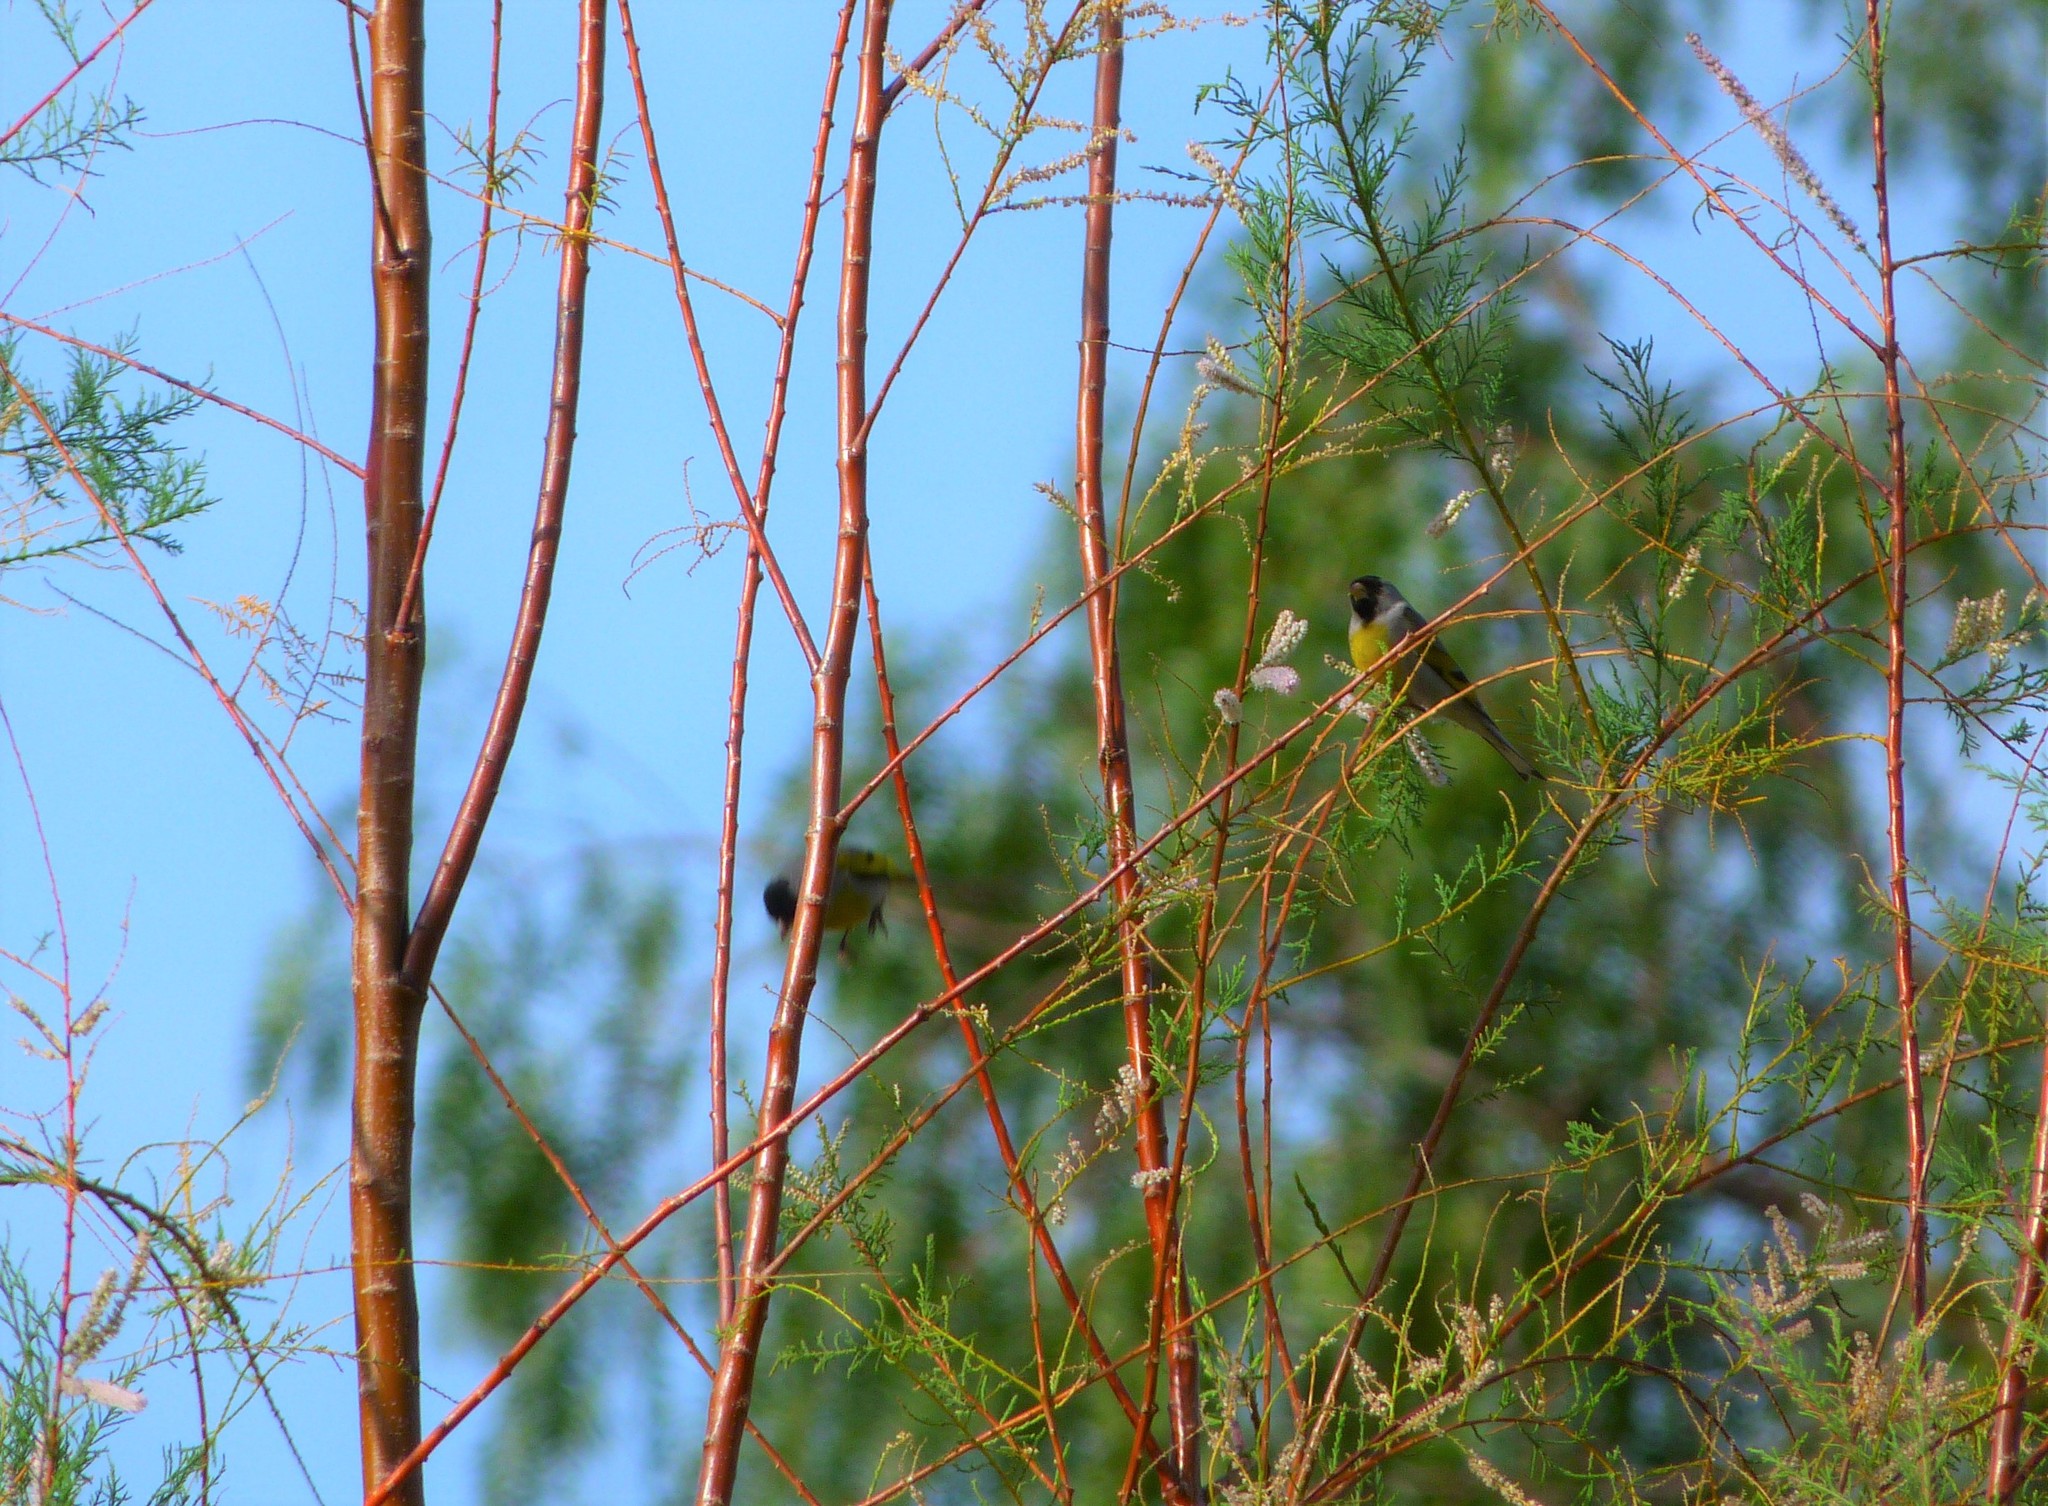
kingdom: Animalia
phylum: Chordata
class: Aves
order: Passeriformes
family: Fringillidae
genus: Spinus
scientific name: Spinus lawrencei
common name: Lawrence's goldfinch
